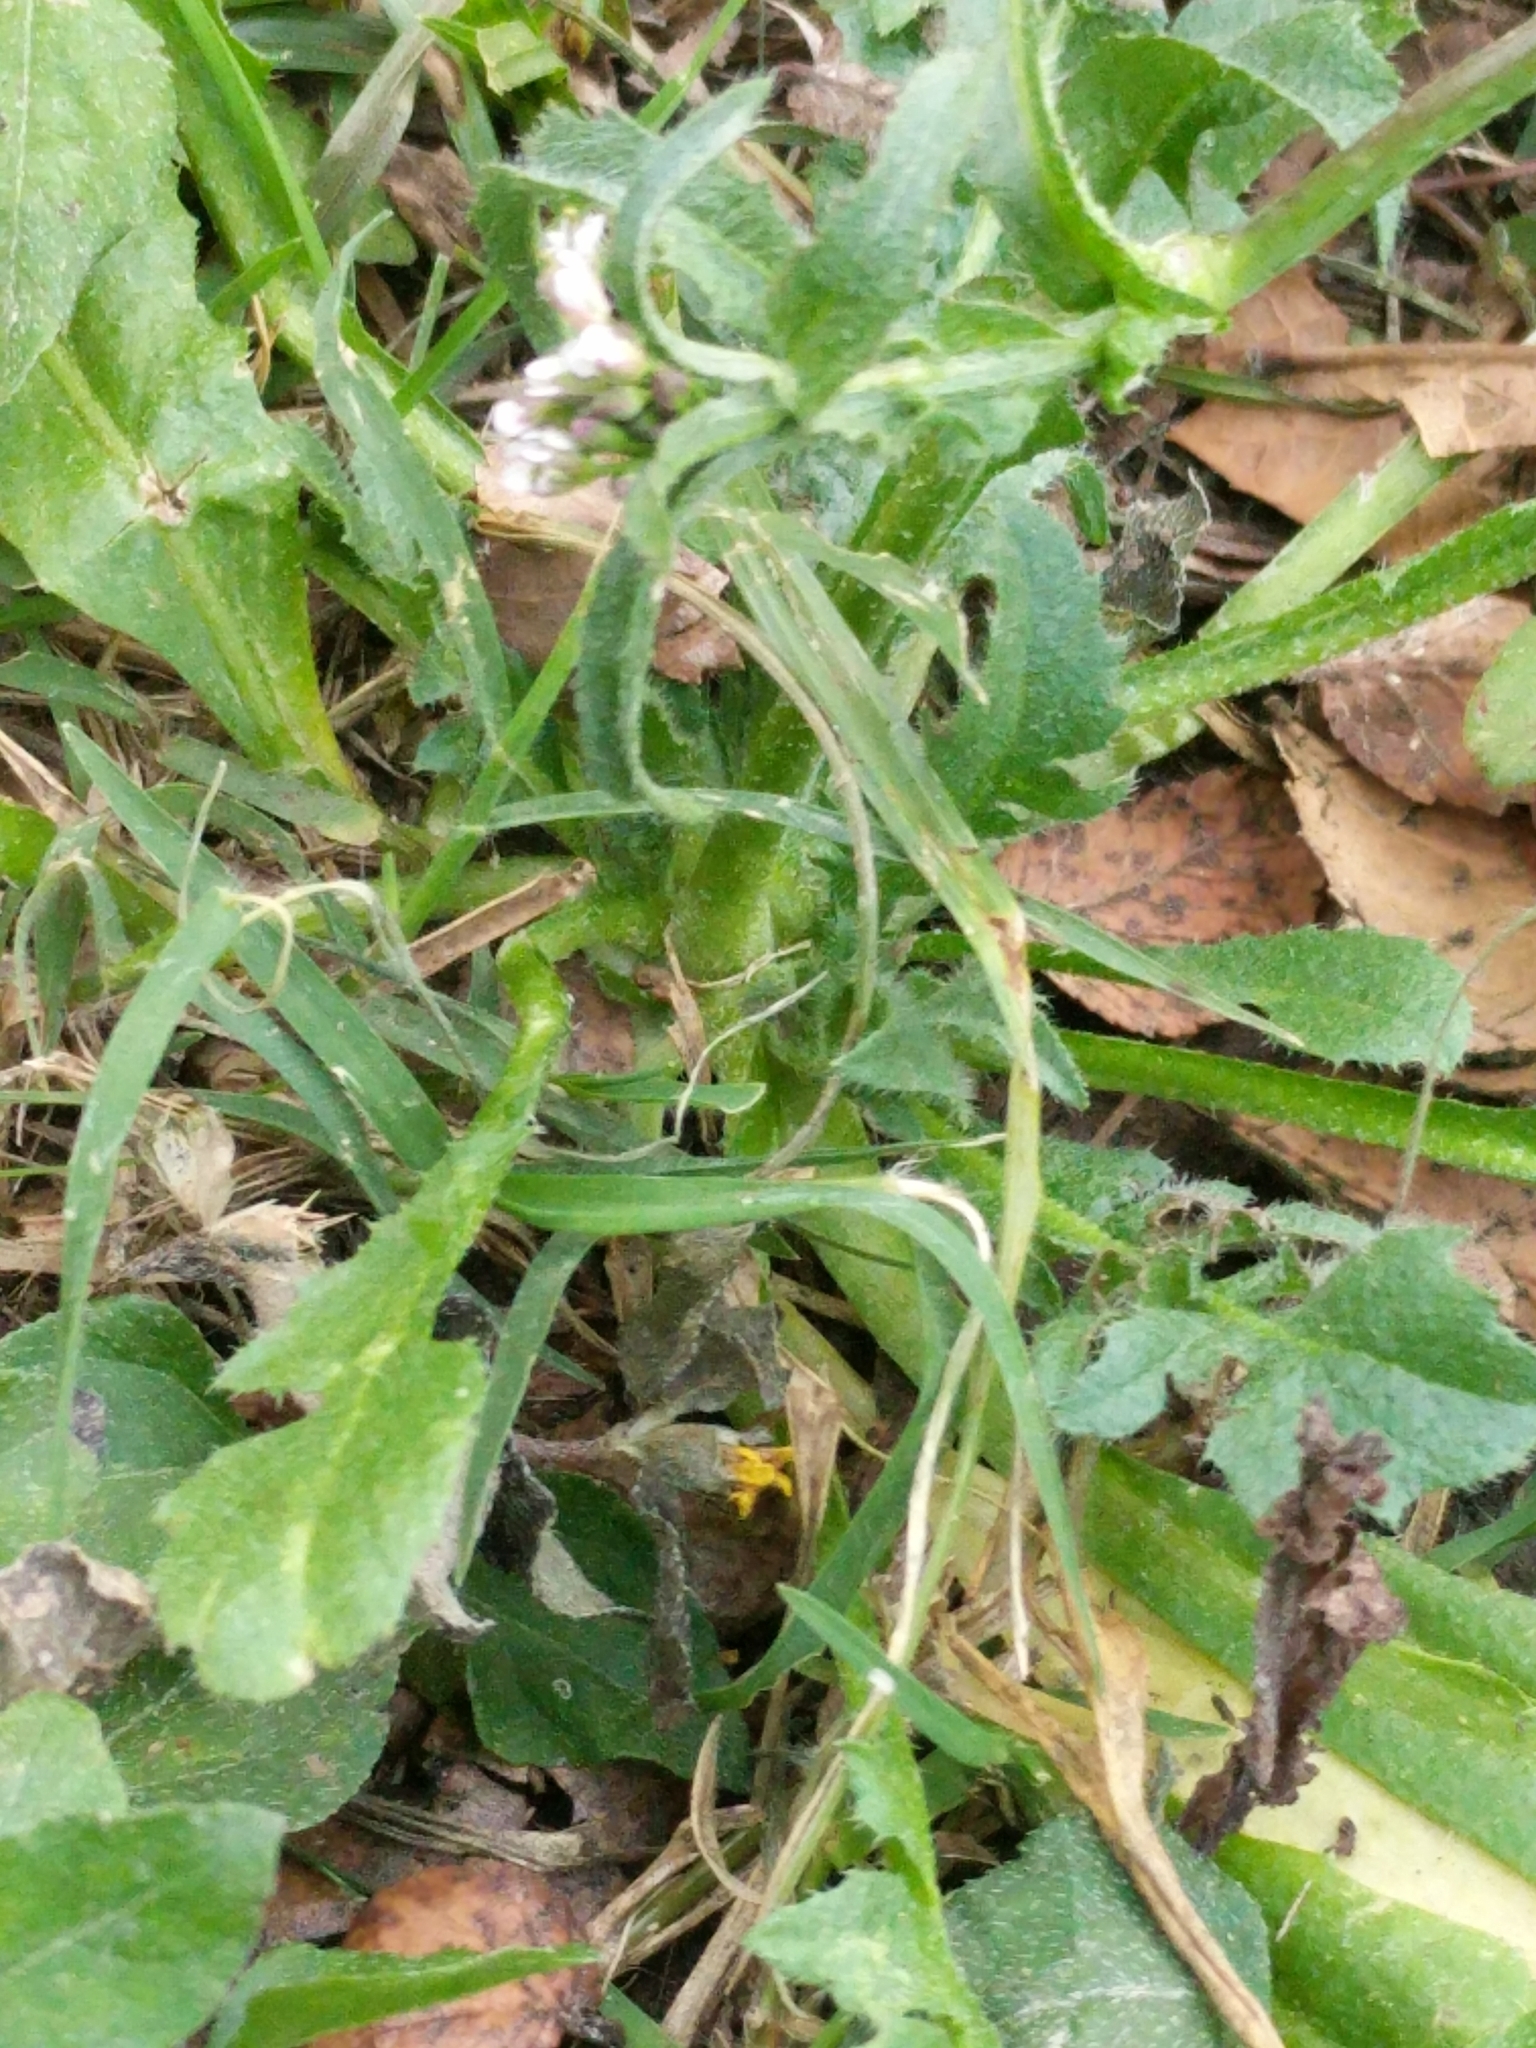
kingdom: Plantae
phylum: Tracheophyta
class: Magnoliopsida
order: Brassicales
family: Brassicaceae
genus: Capsella
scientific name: Capsella bursa-pastoris
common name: Shepherd's purse
